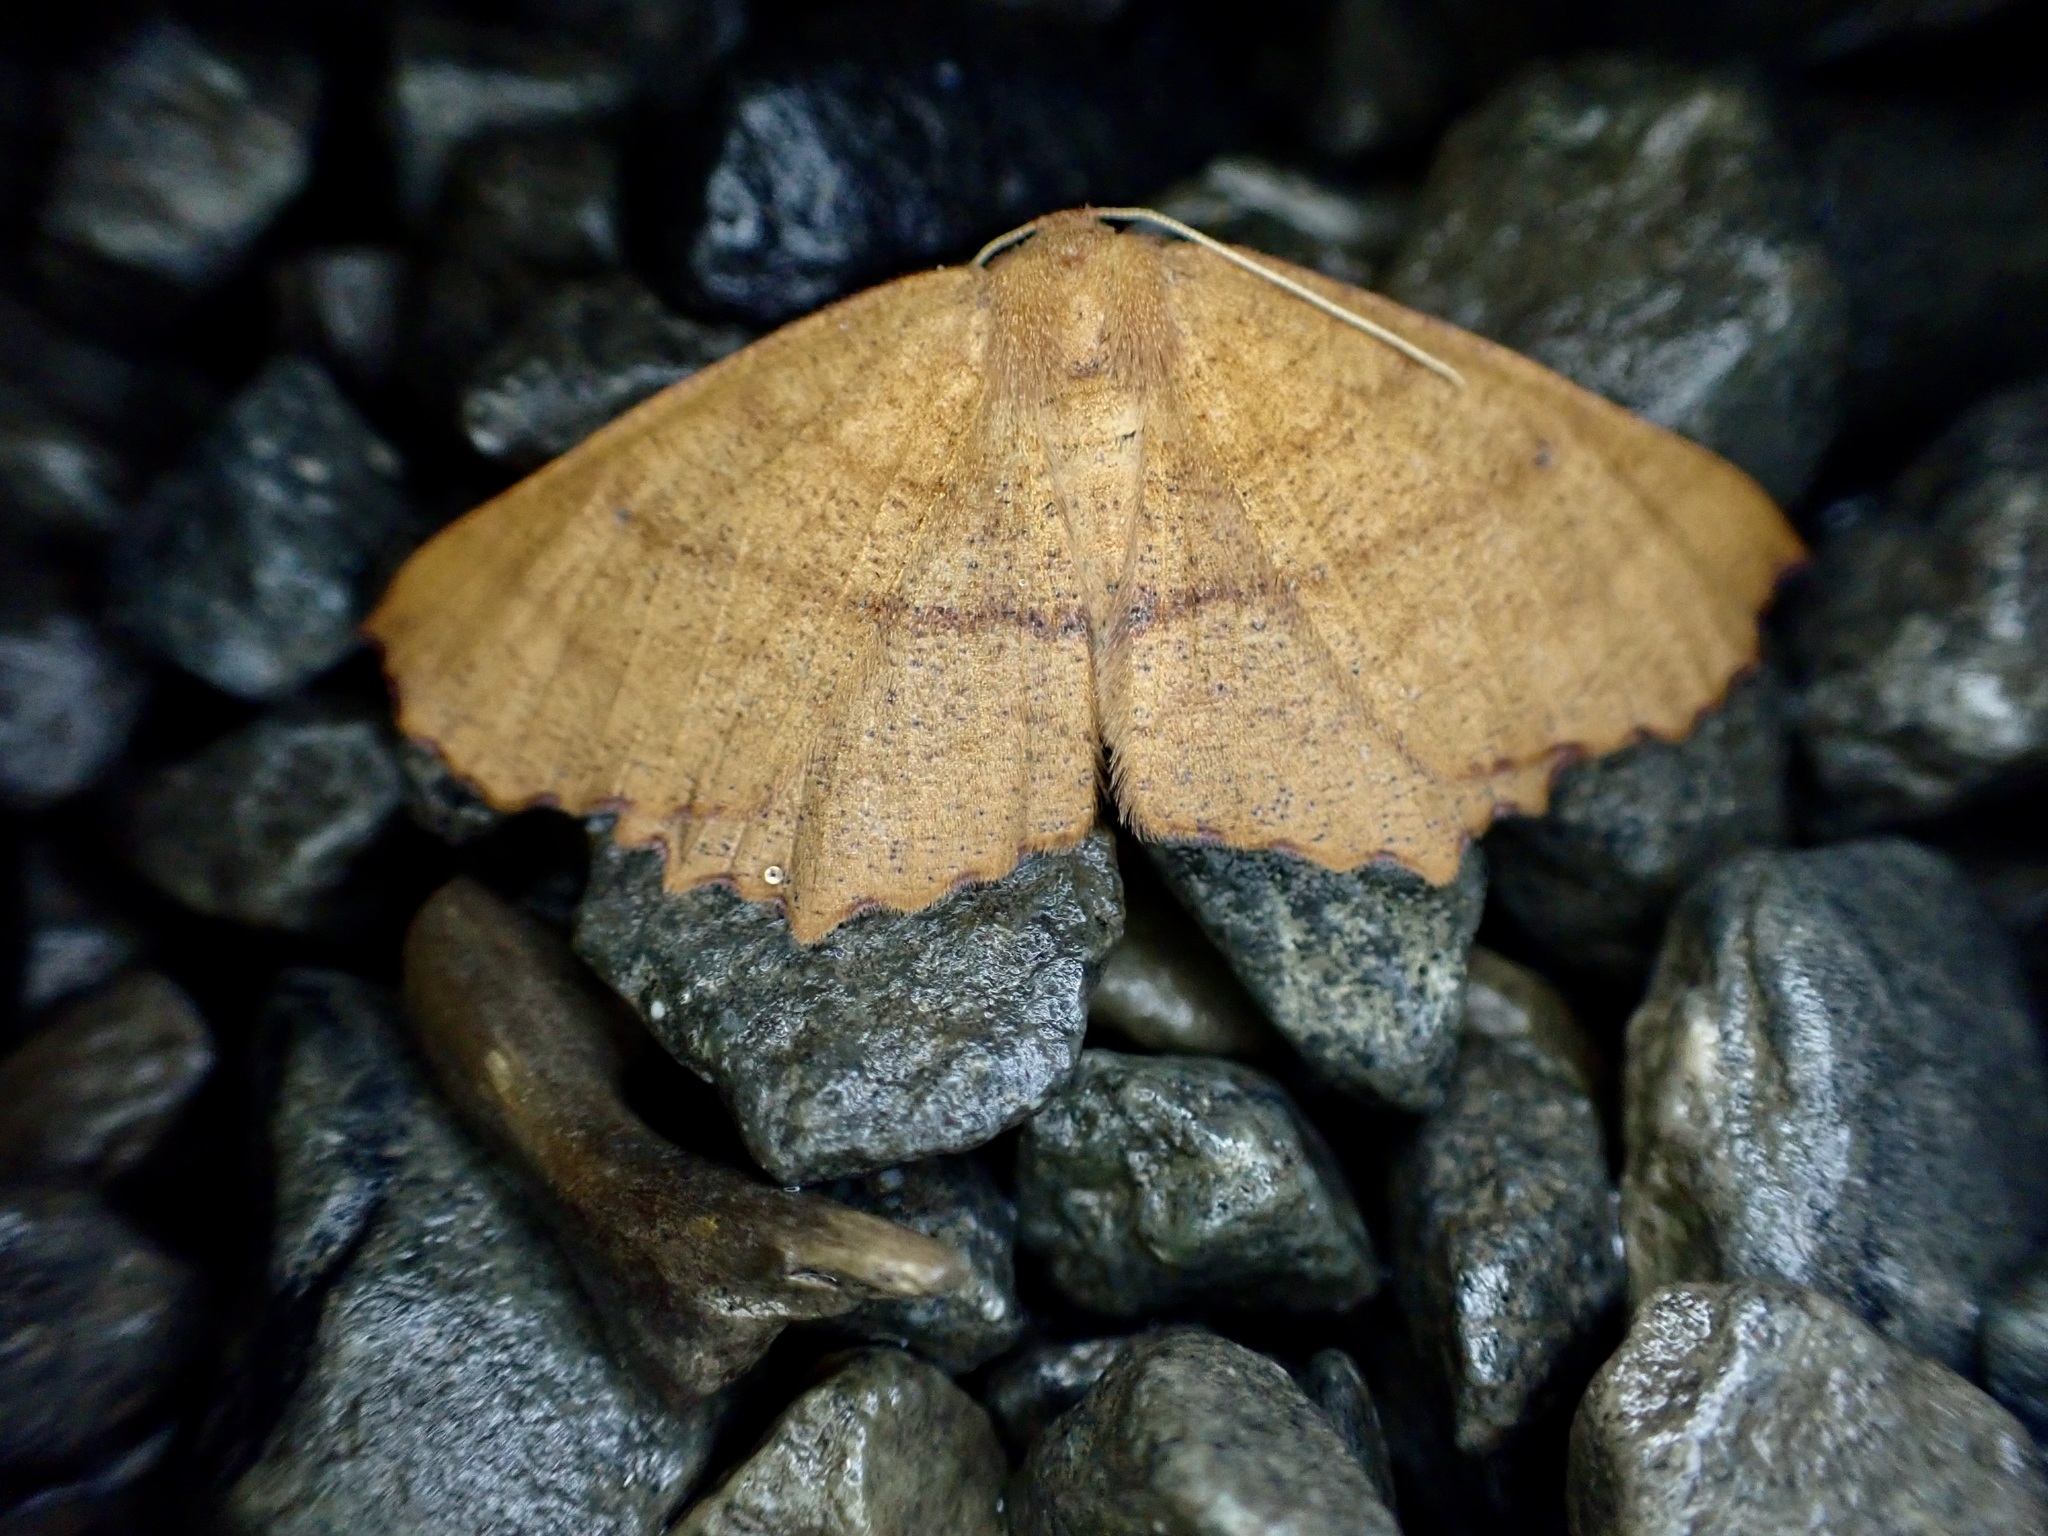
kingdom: Animalia
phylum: Arthropoda
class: Insecta
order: Lepidoptera
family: Geometridae
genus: Xyridacma
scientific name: Xyridacma ustaria
